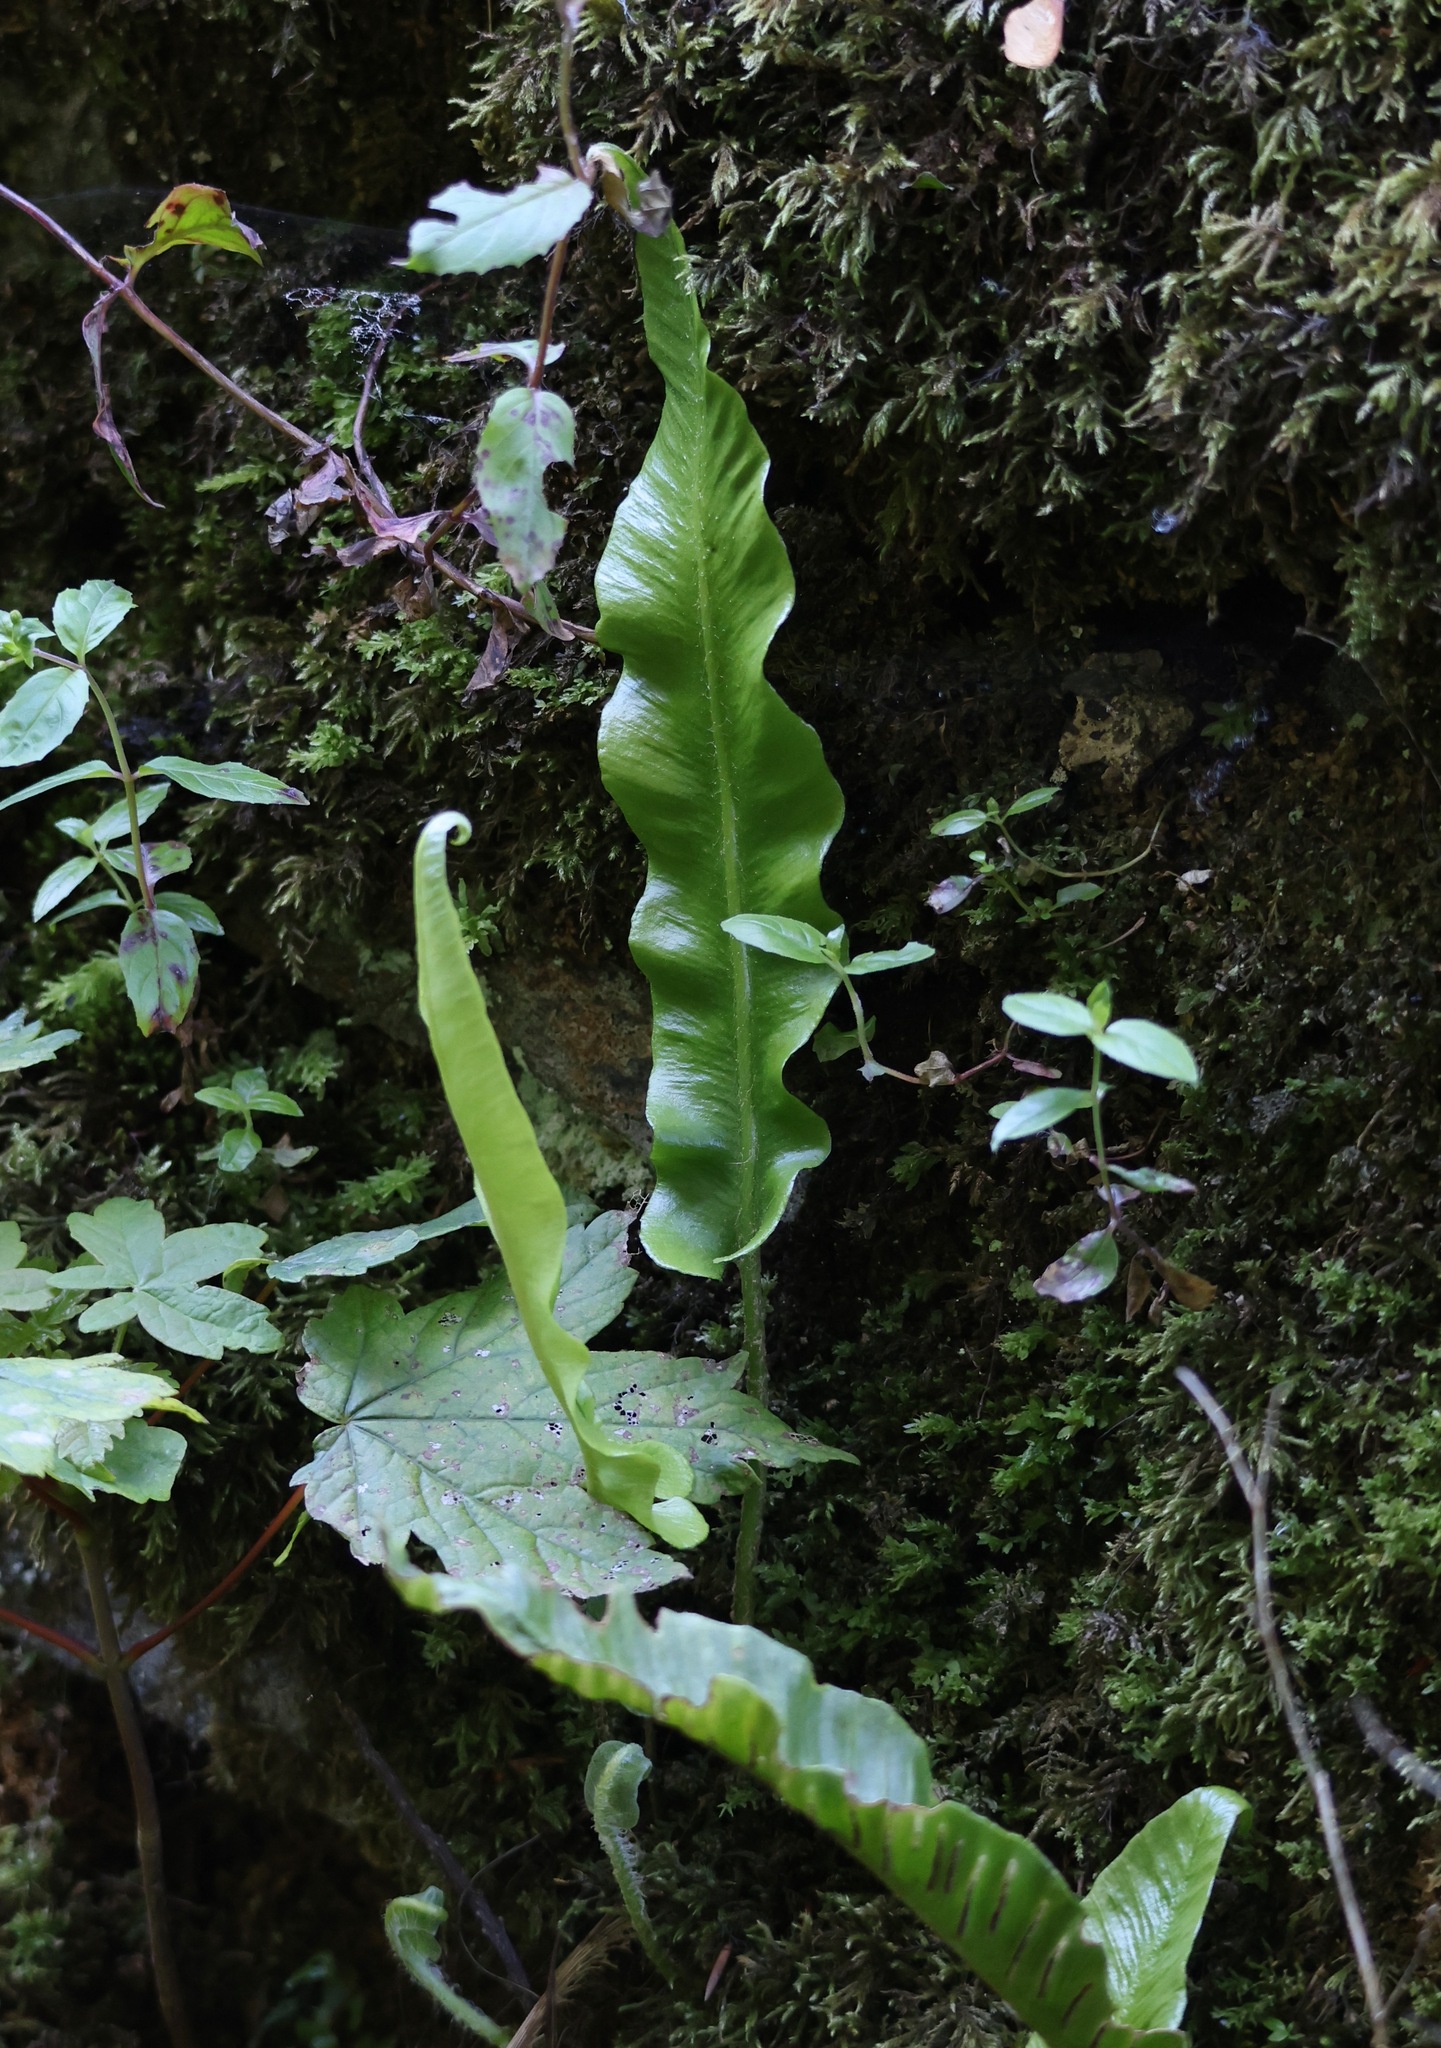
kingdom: Plantae
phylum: Tracheophyta
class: Polypodiopsida
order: Polypodiales
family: Aspleniaceae
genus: Asplenium
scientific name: Asplenium scolopendrium
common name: Hart's-tongue fern
